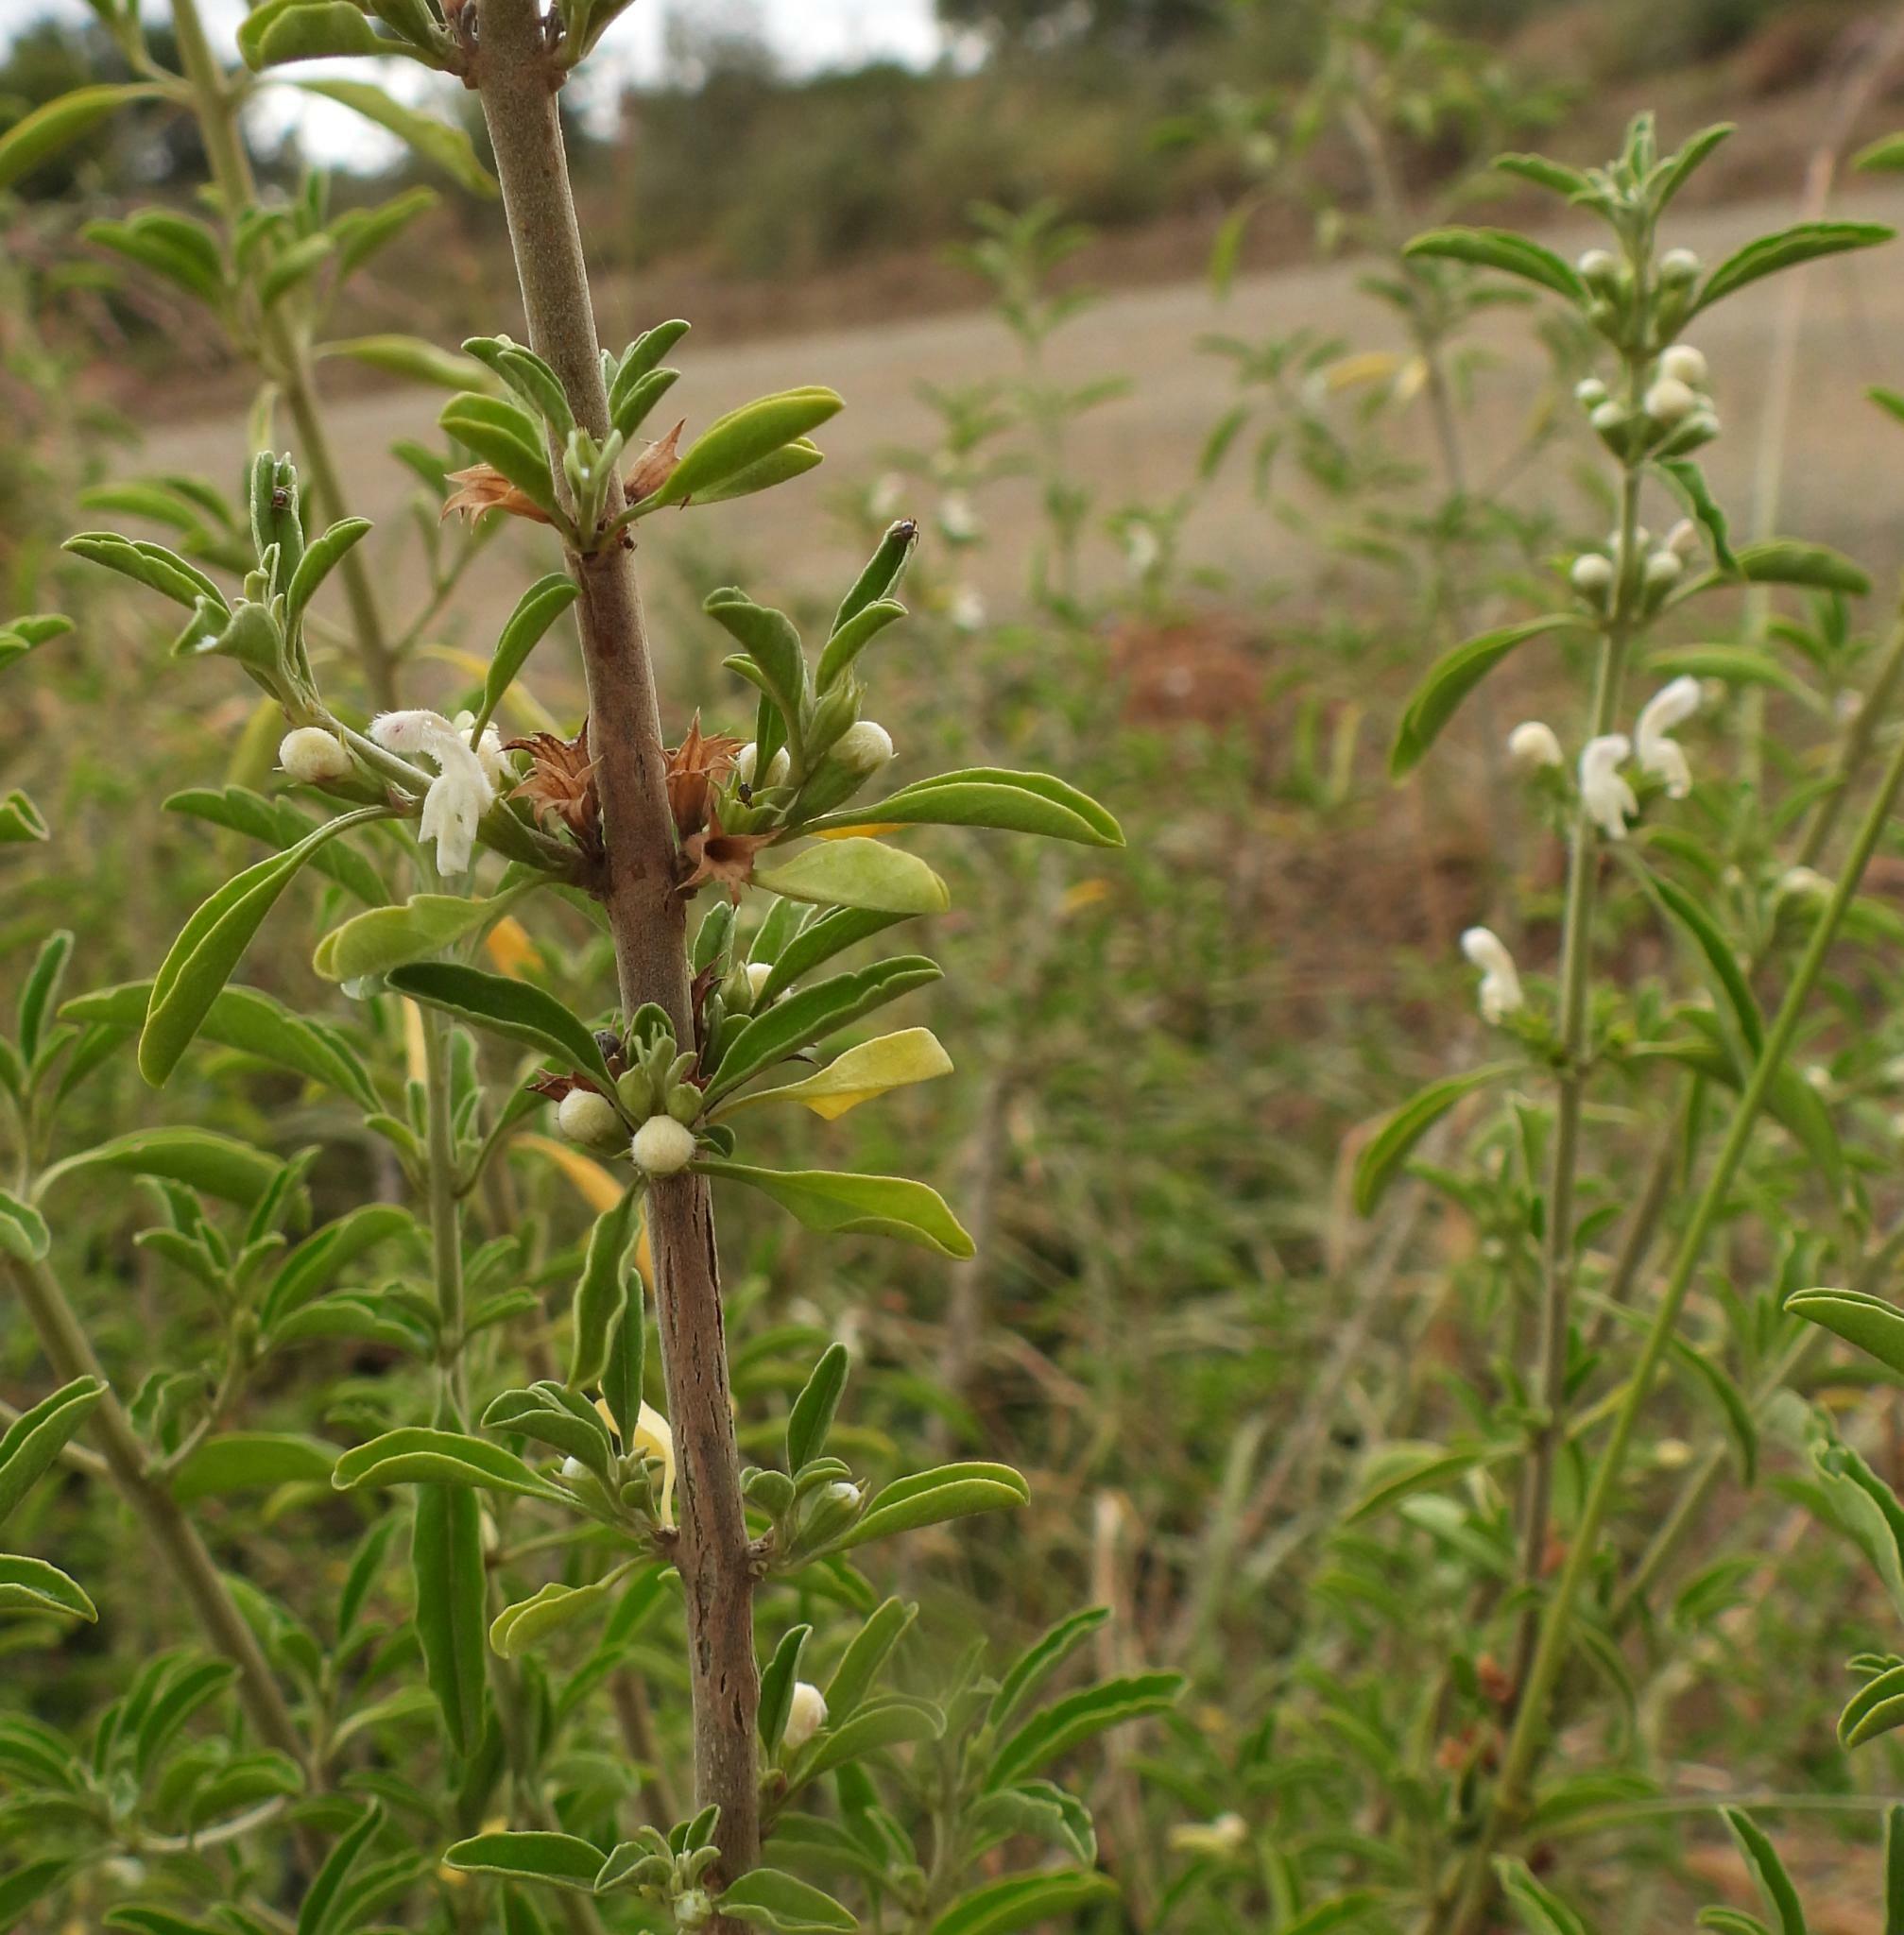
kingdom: Plantae
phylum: Tracheophyta
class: Magnoliopsida
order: Lamiales
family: Lamiaceae
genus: Leucas
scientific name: Leucas capensis
